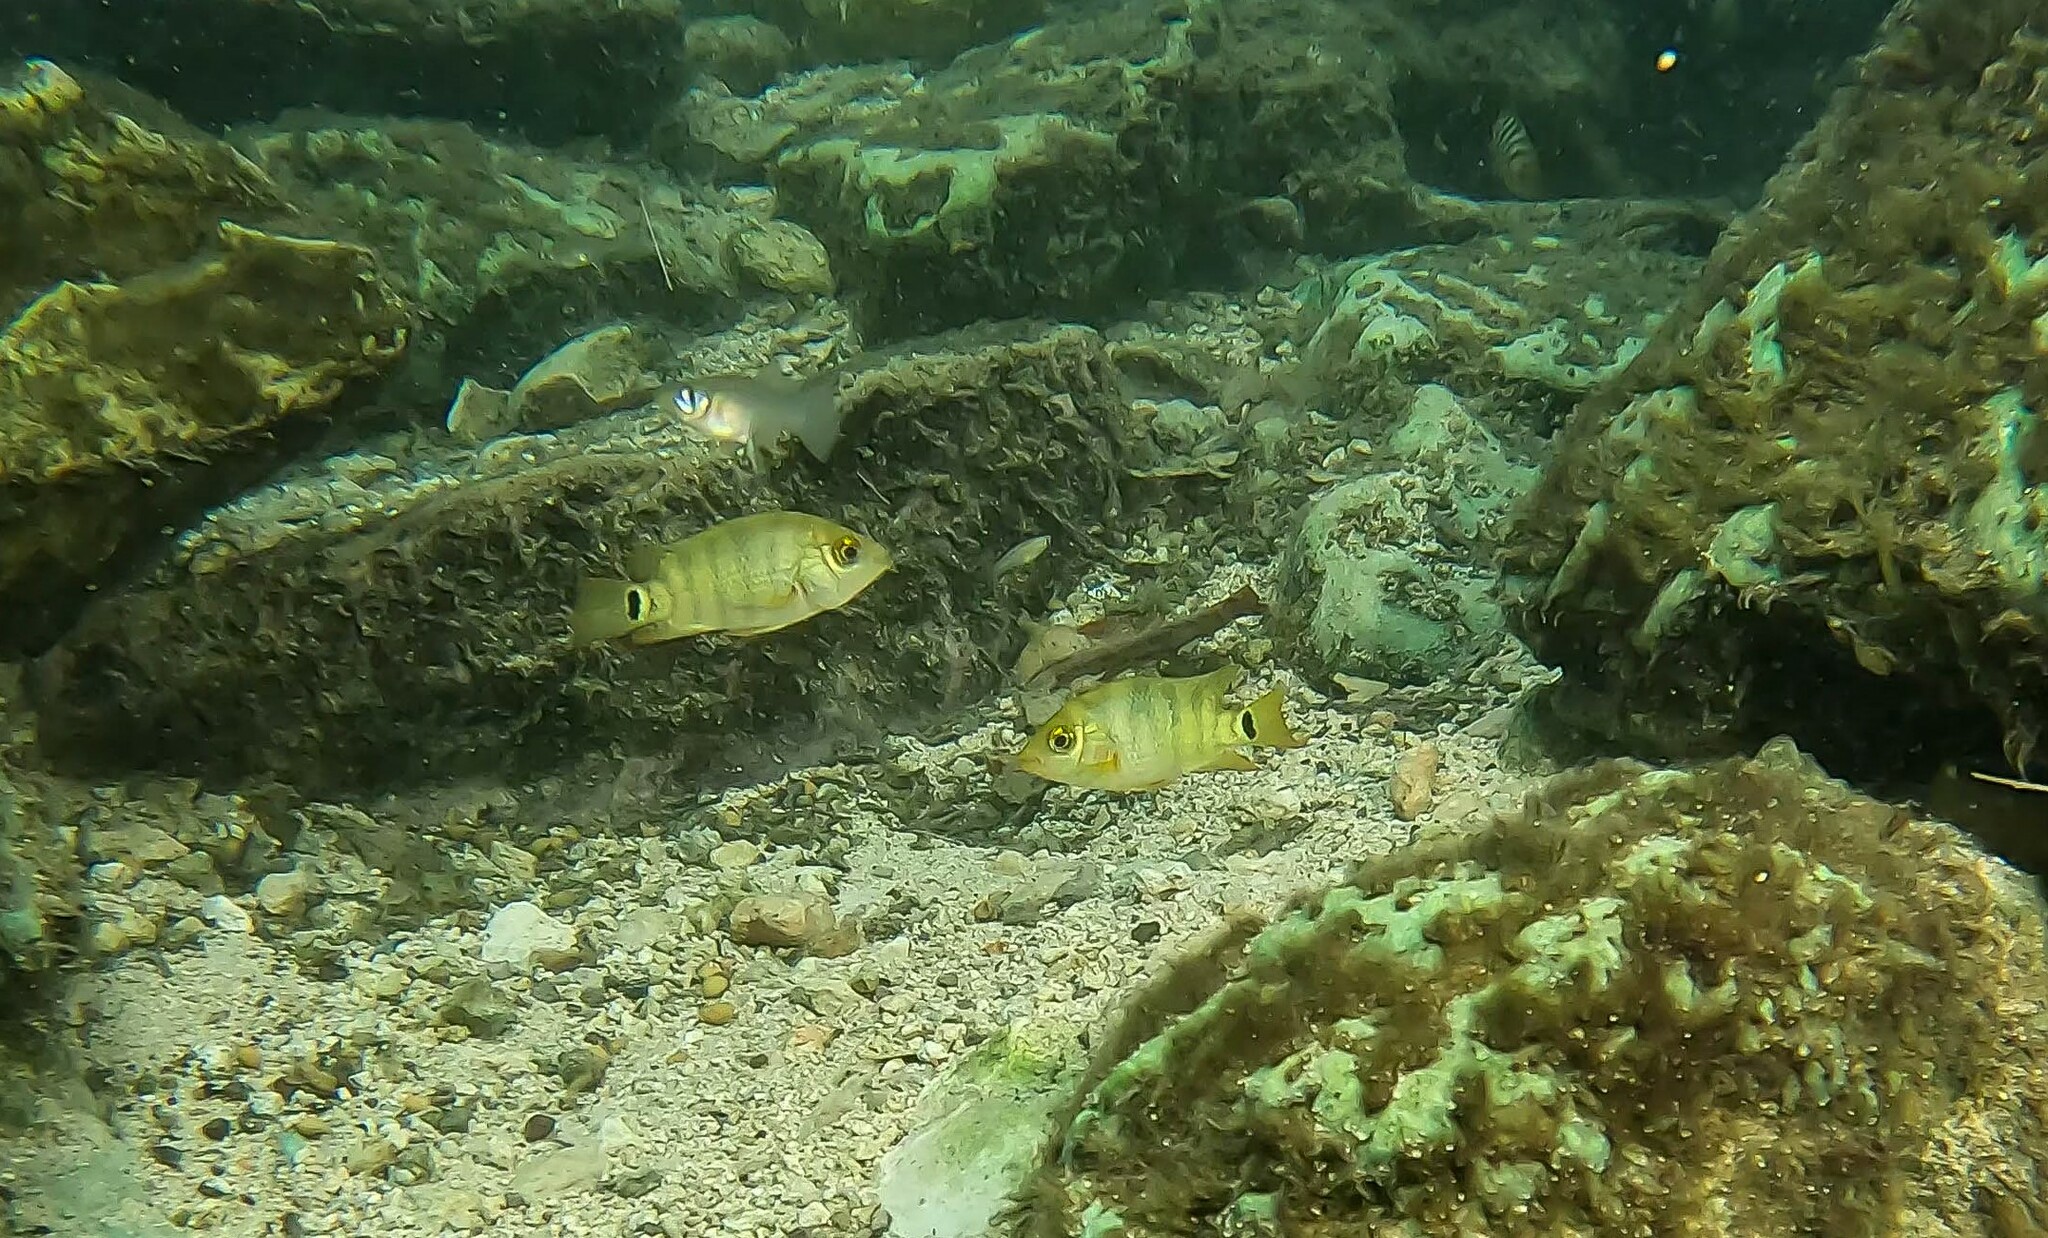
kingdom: Animalia
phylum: Chordata
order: Perciformes
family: Cichlidae
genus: Mayaheros
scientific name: Mayaheros urophthalmus
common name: Mayan cichlid
